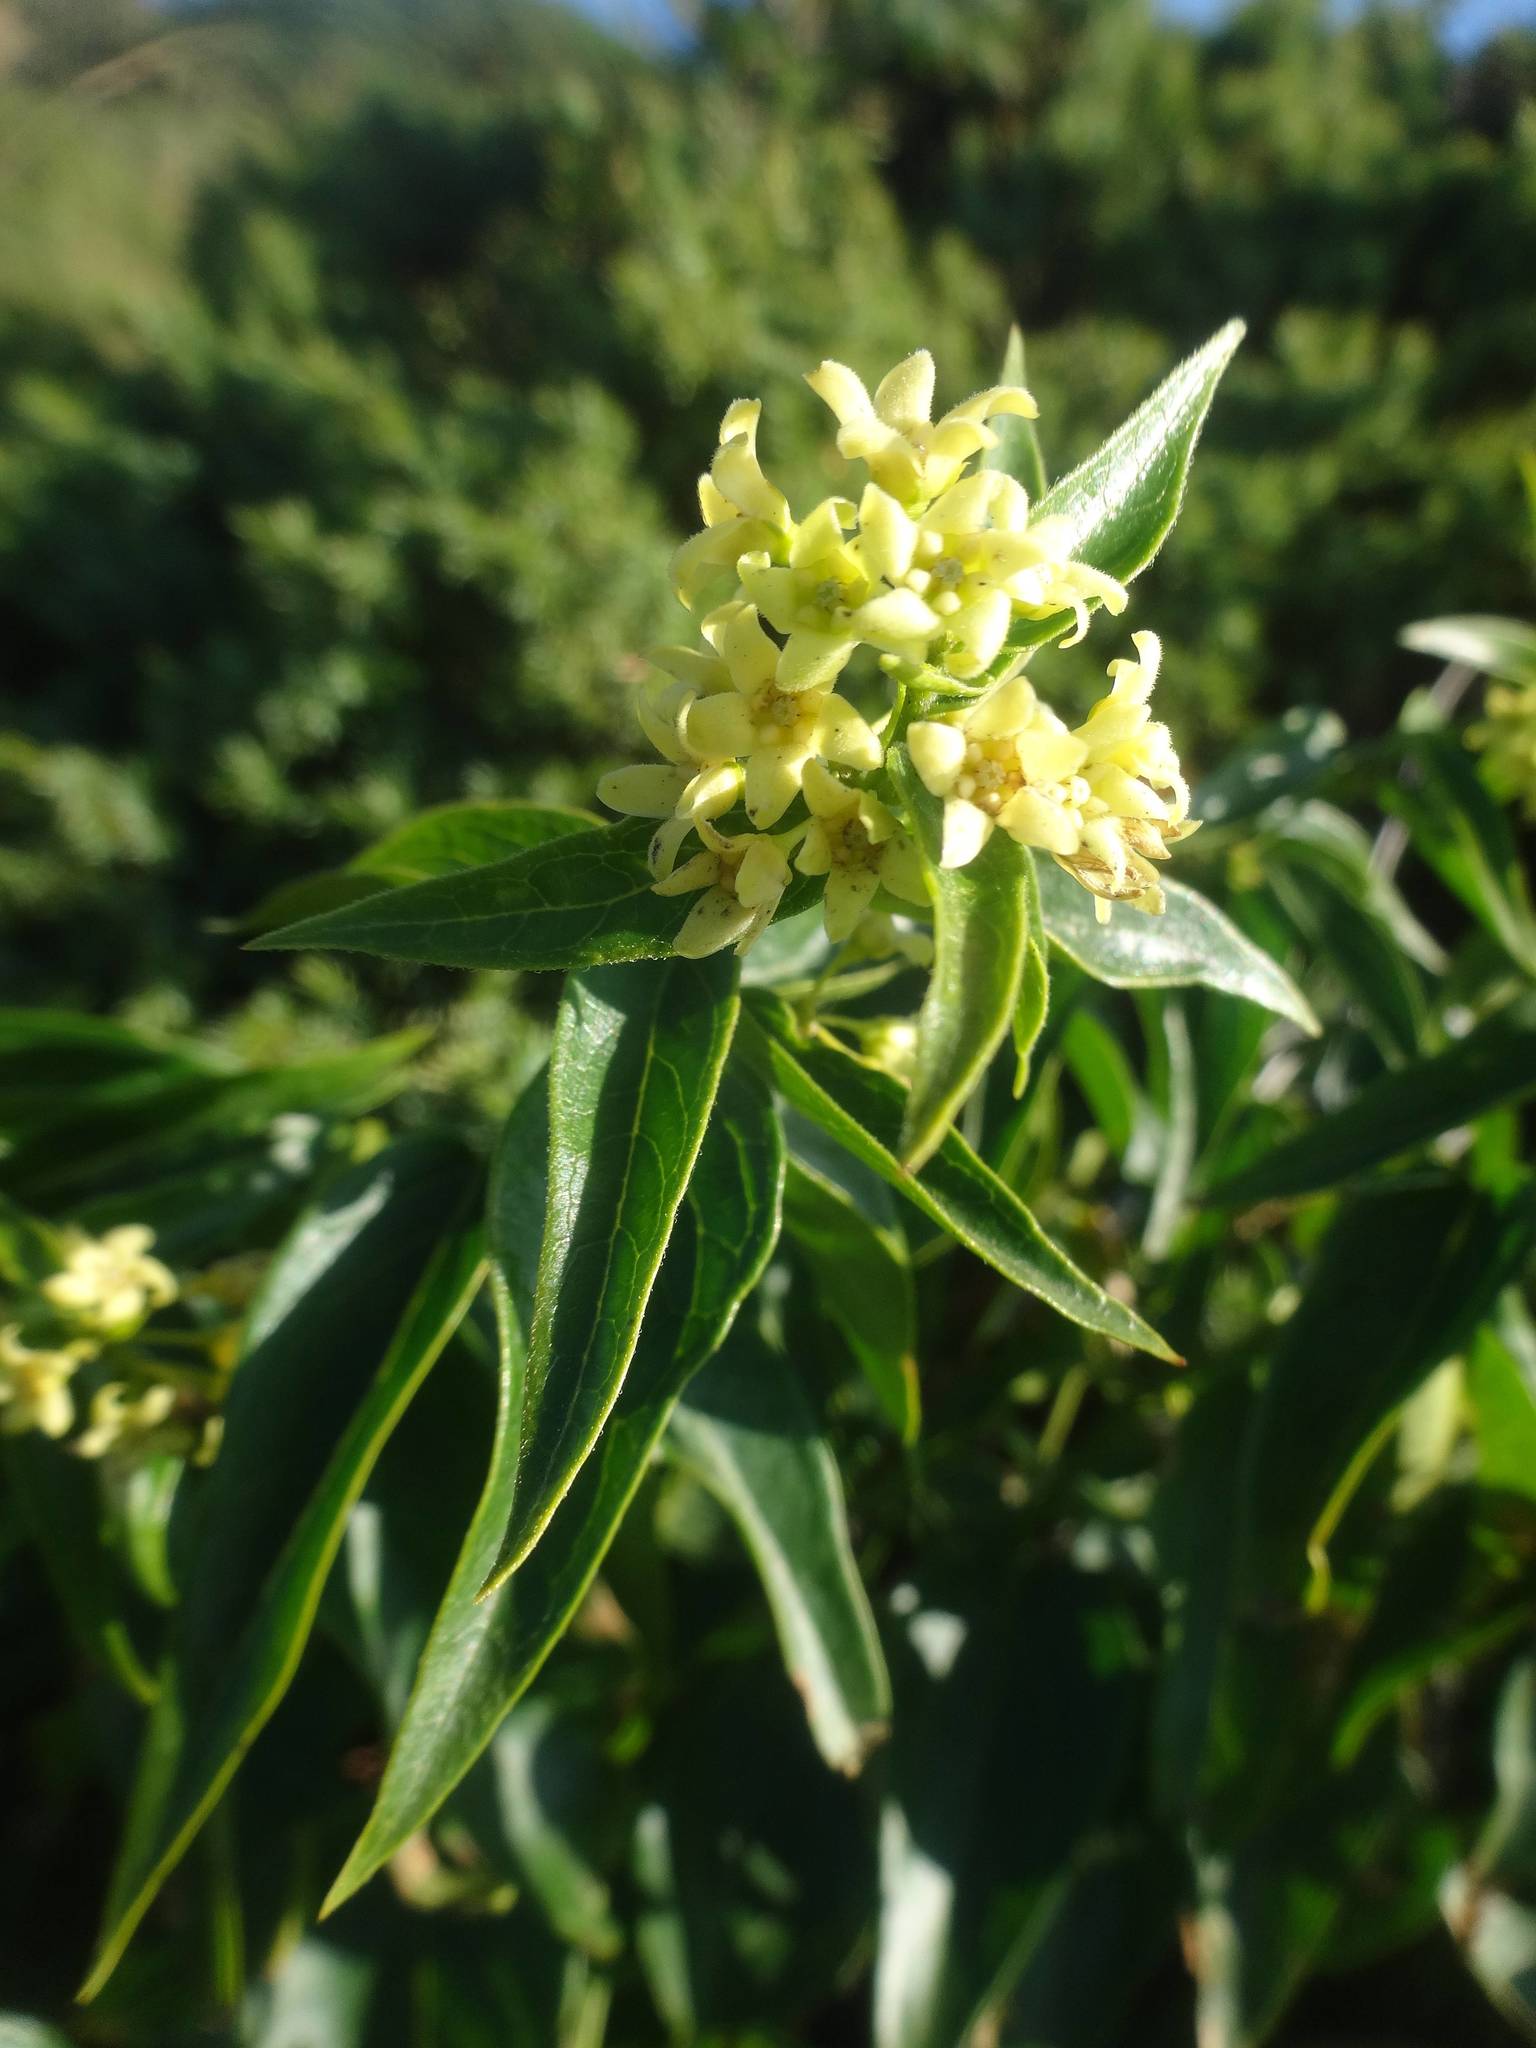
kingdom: Plantae
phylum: Tracheophyta
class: Magnoliopsida
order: Gentianales
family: Apocynaceae
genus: Vincetoxicum
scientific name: Vincetoxicum hirundinaria
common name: White swallowwort
